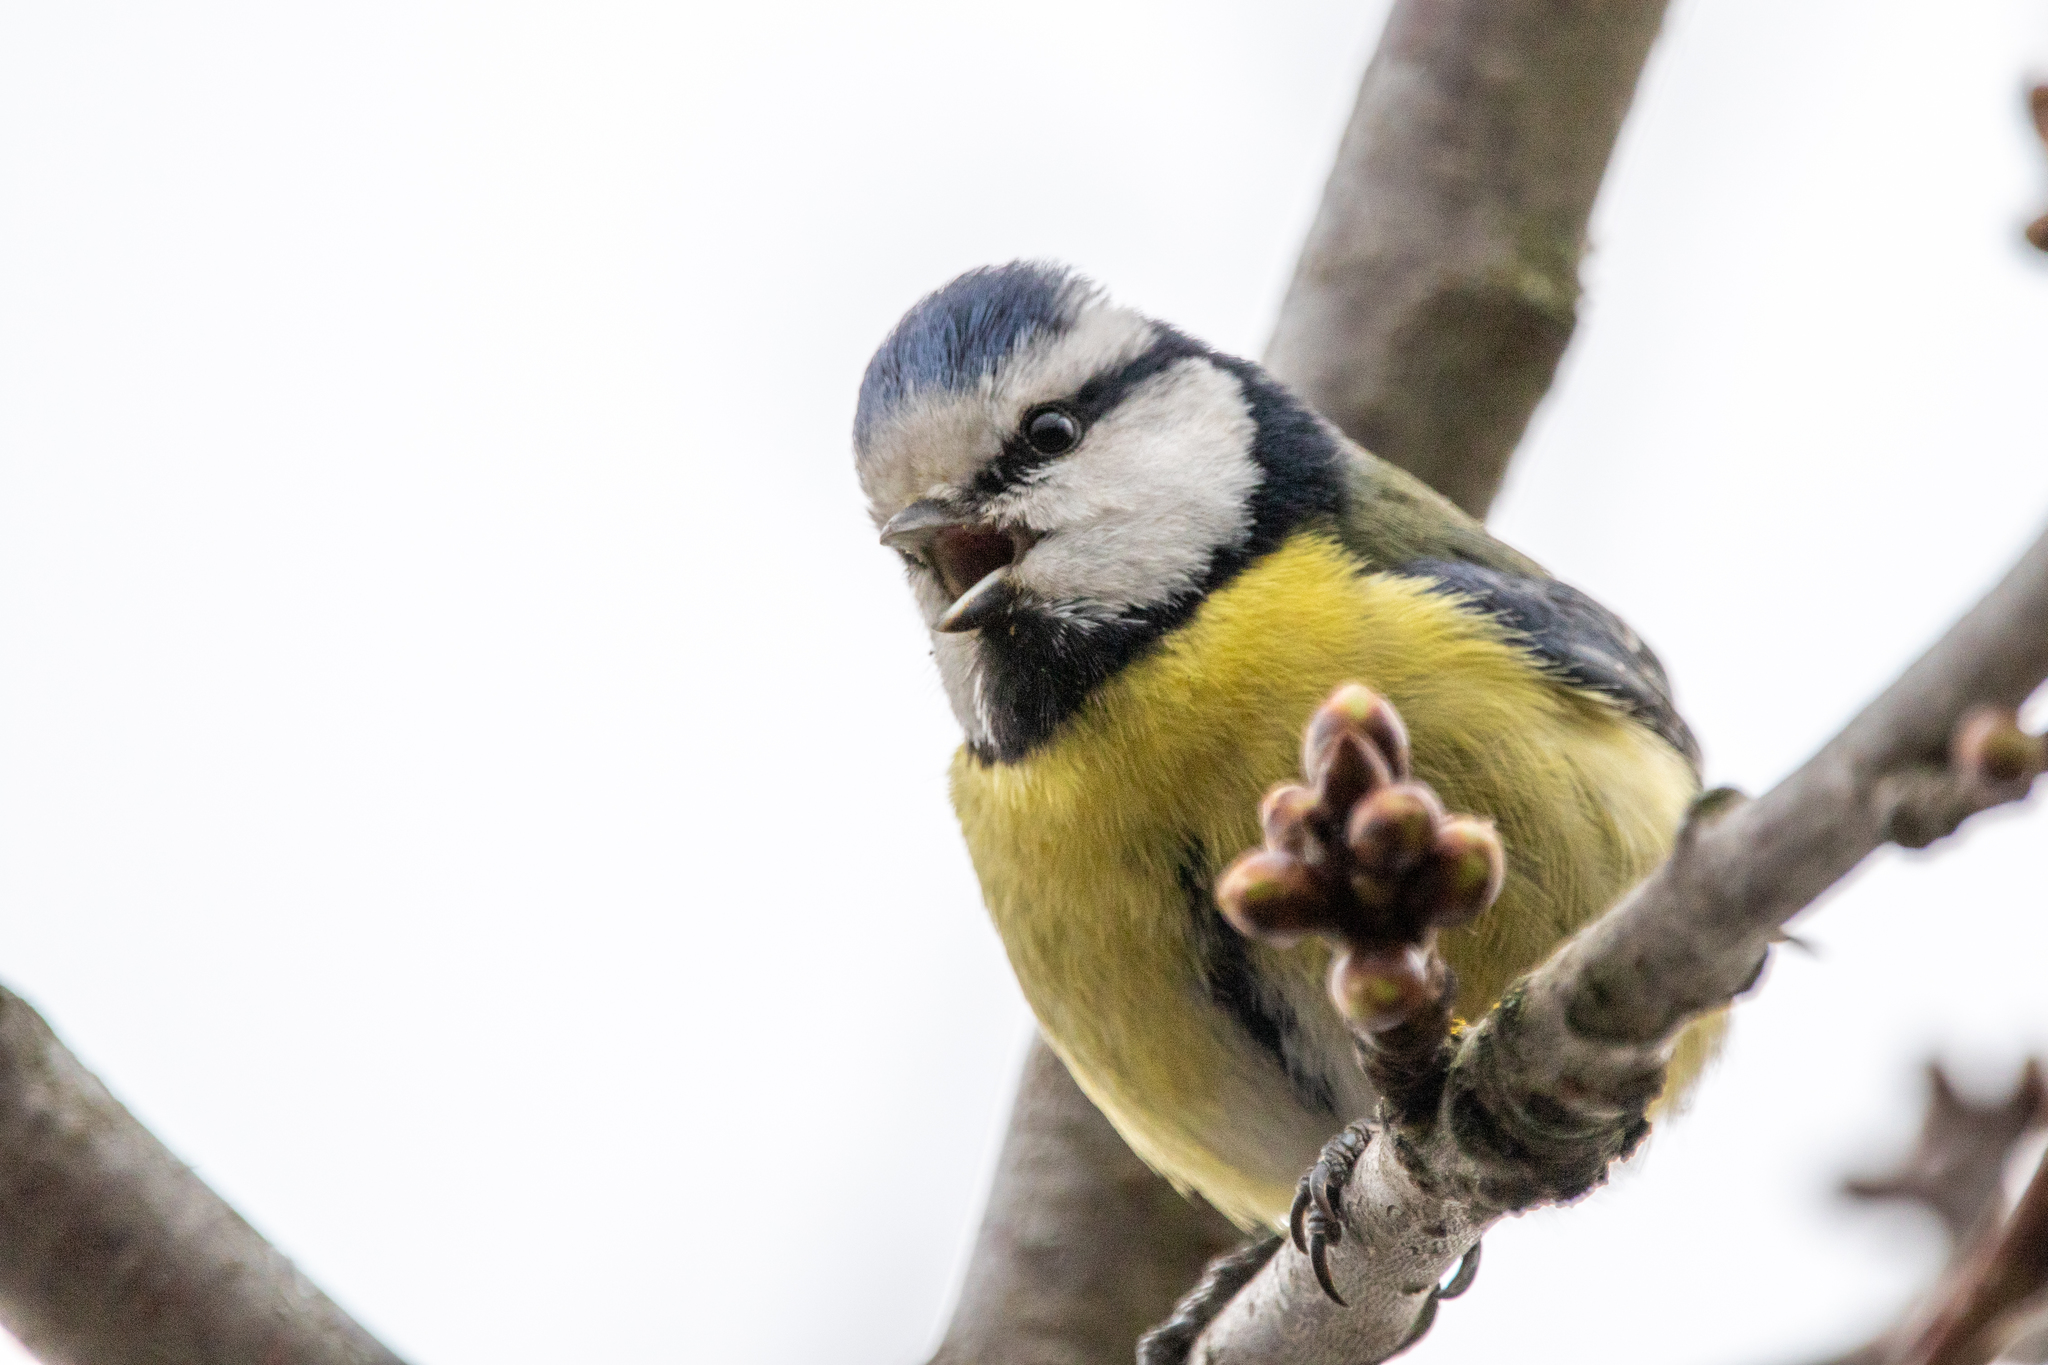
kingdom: Animalia
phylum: Chordata
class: Aves
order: Passeriformes
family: Paridae
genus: Cyanistes
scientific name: Cyanistes caeruleus
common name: Eurasian blue tit
